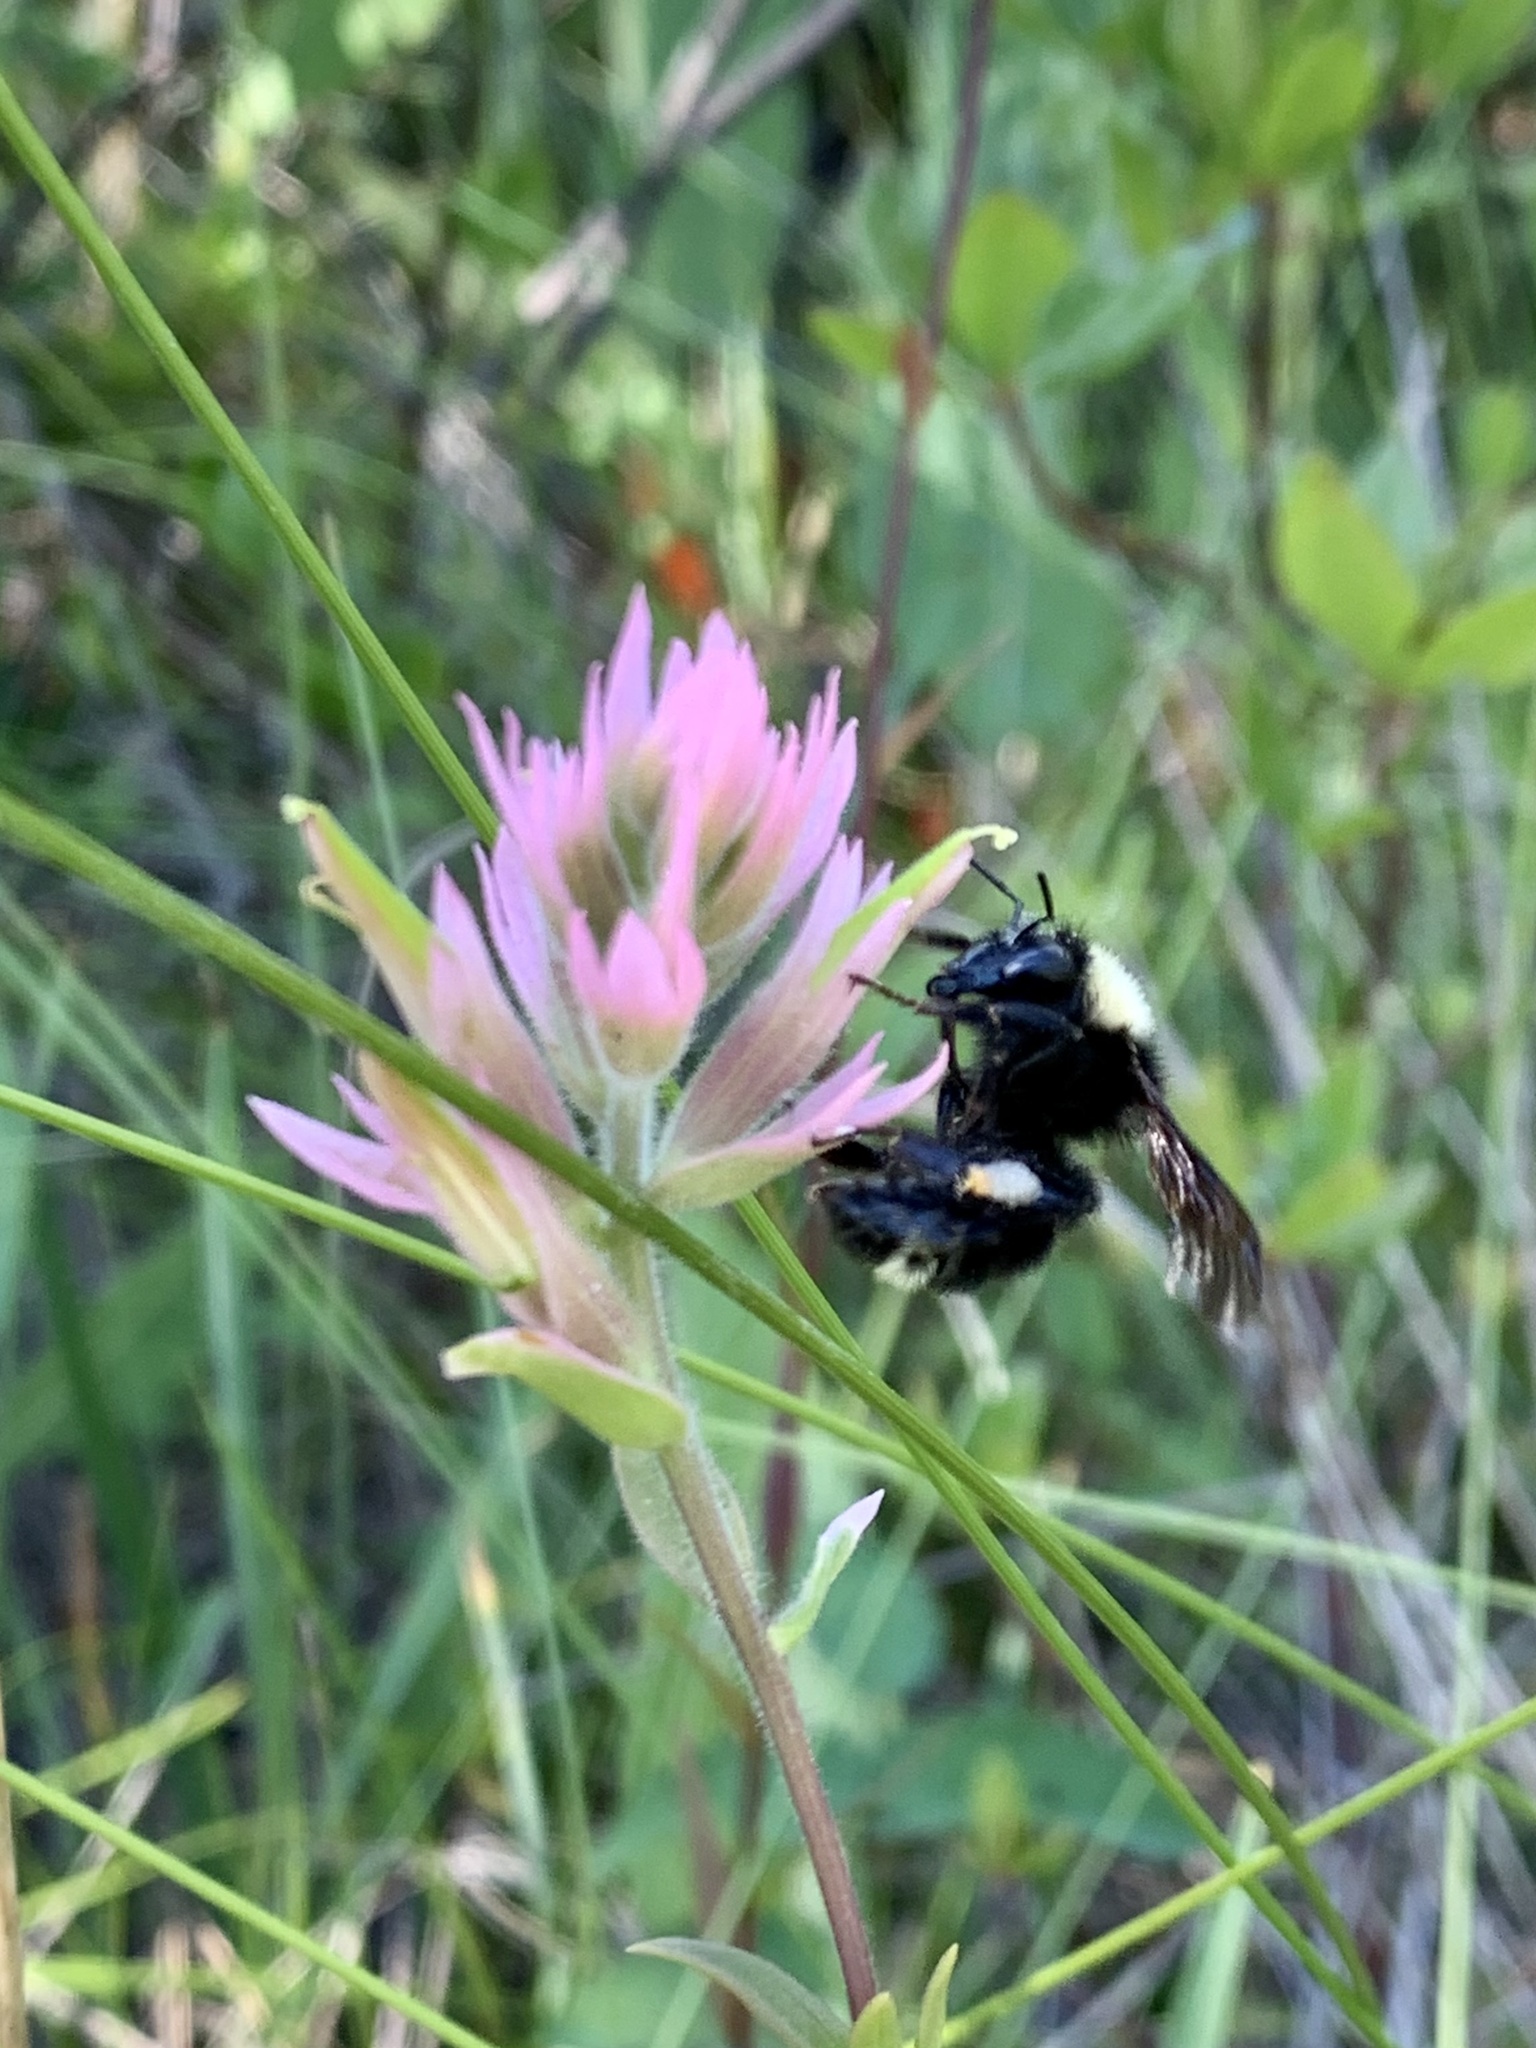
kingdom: Animalia
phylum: Arthropoda
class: Insecta
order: Hymenoptera
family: Apidae
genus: Bombus
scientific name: Bombus californicus
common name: California bumble bee
